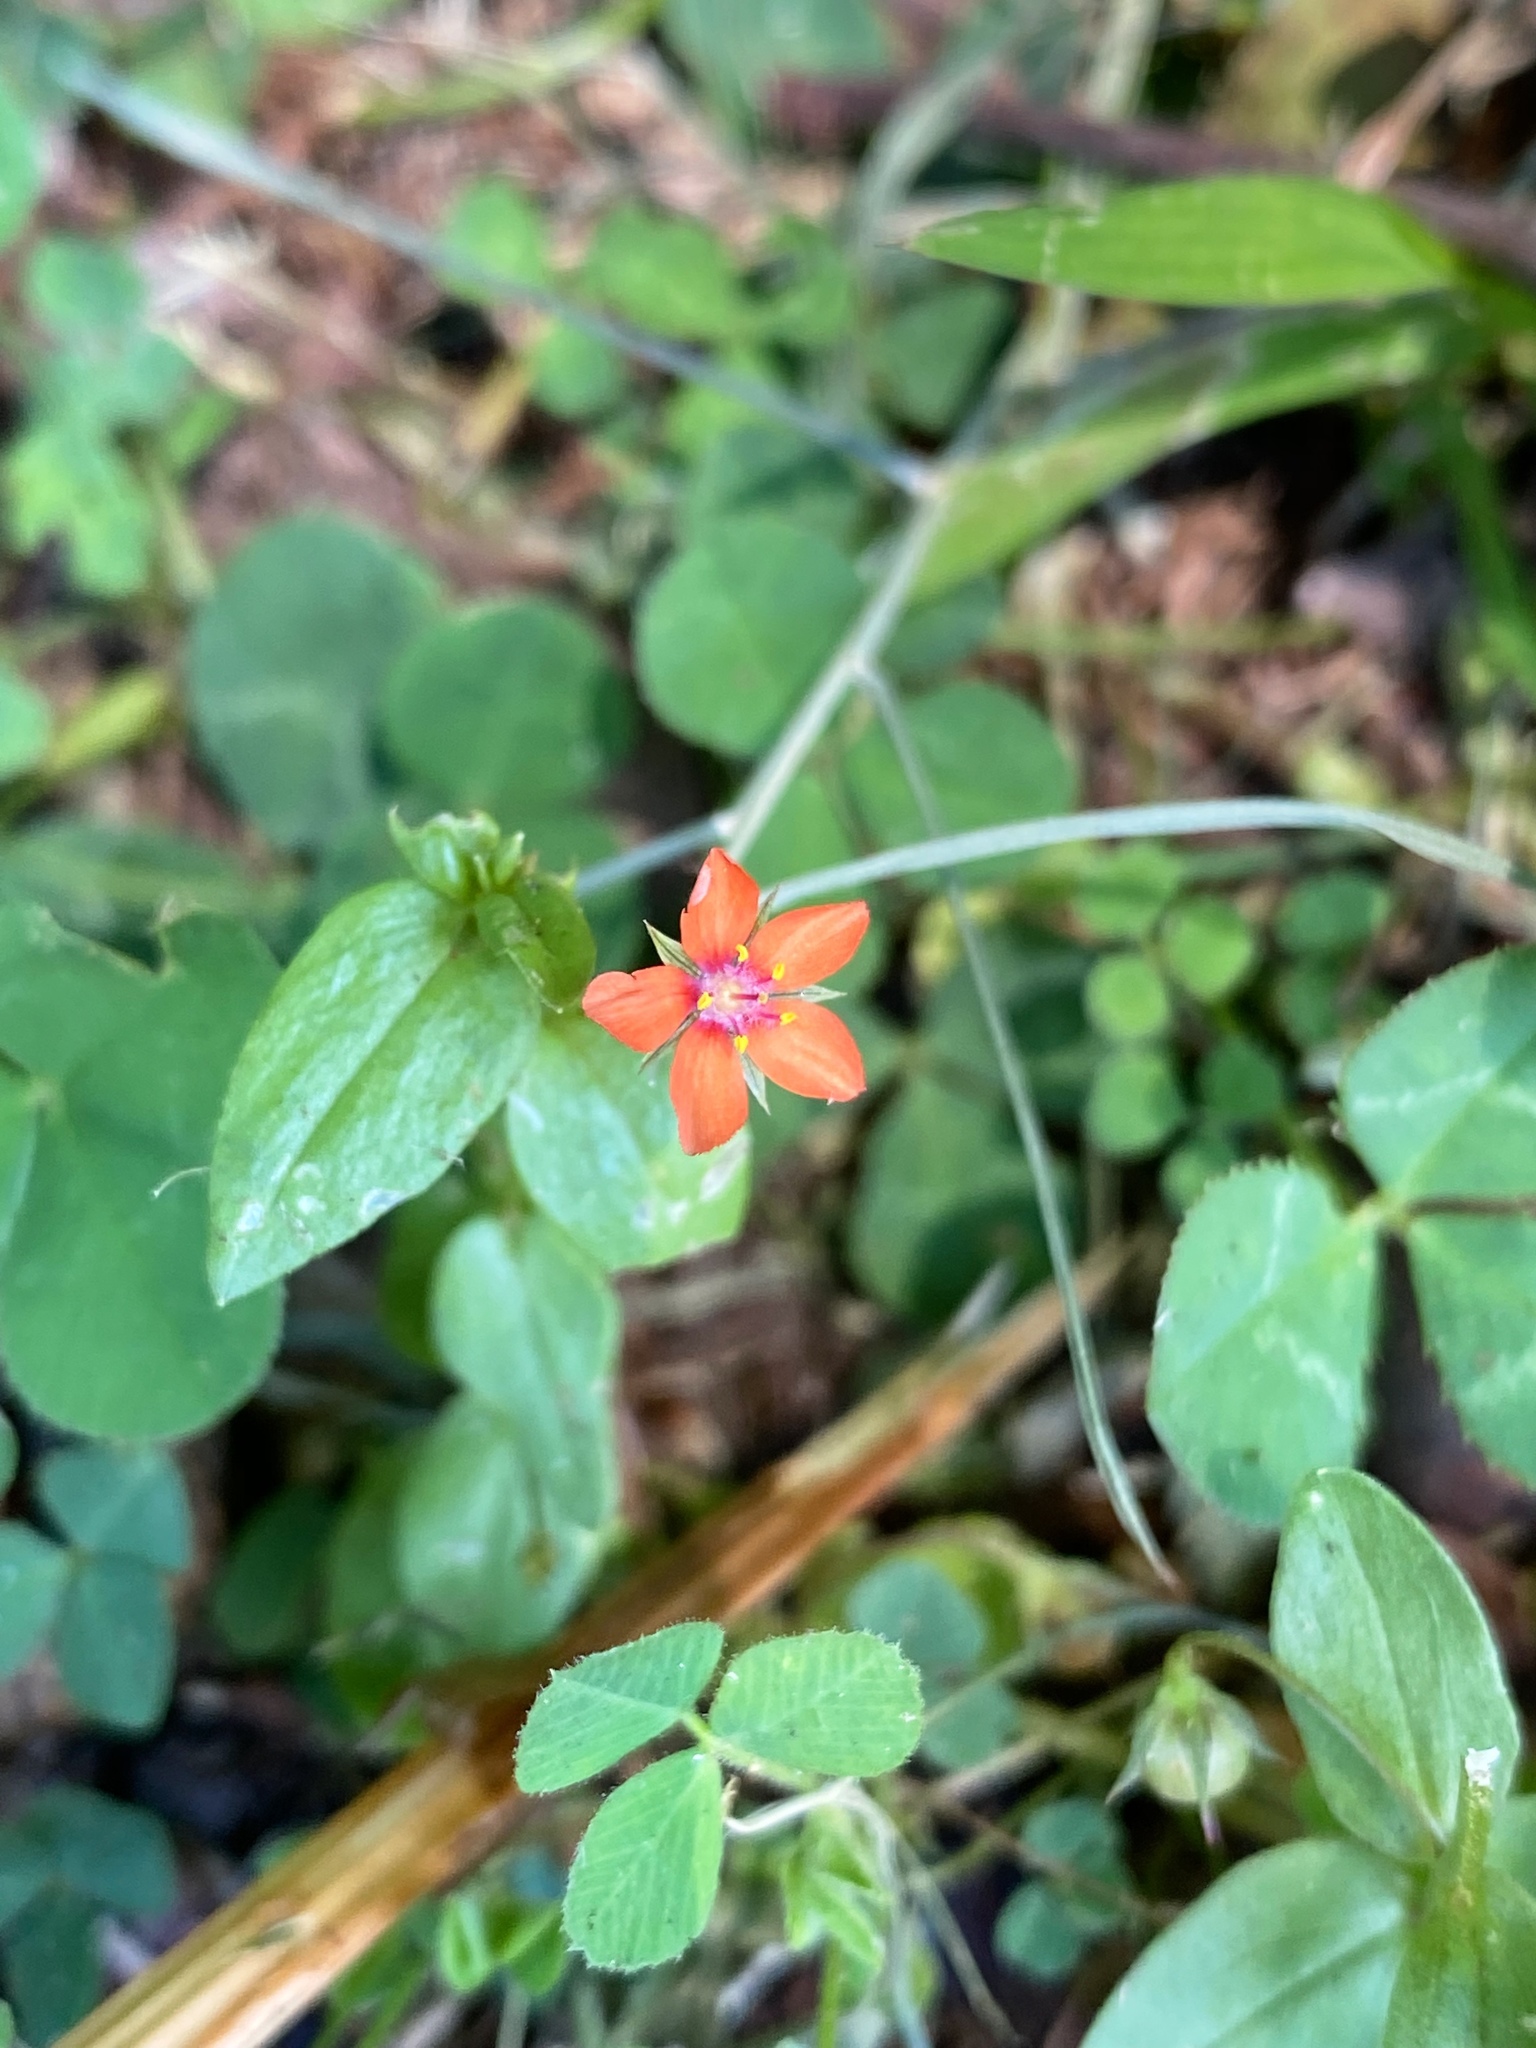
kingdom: Plantae
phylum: Tracheophyta
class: Magnoliopsida
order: Ericales
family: Primulaceae
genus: Lysimachia
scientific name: Lysimachia arvensis
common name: Scarlet pimpernel
